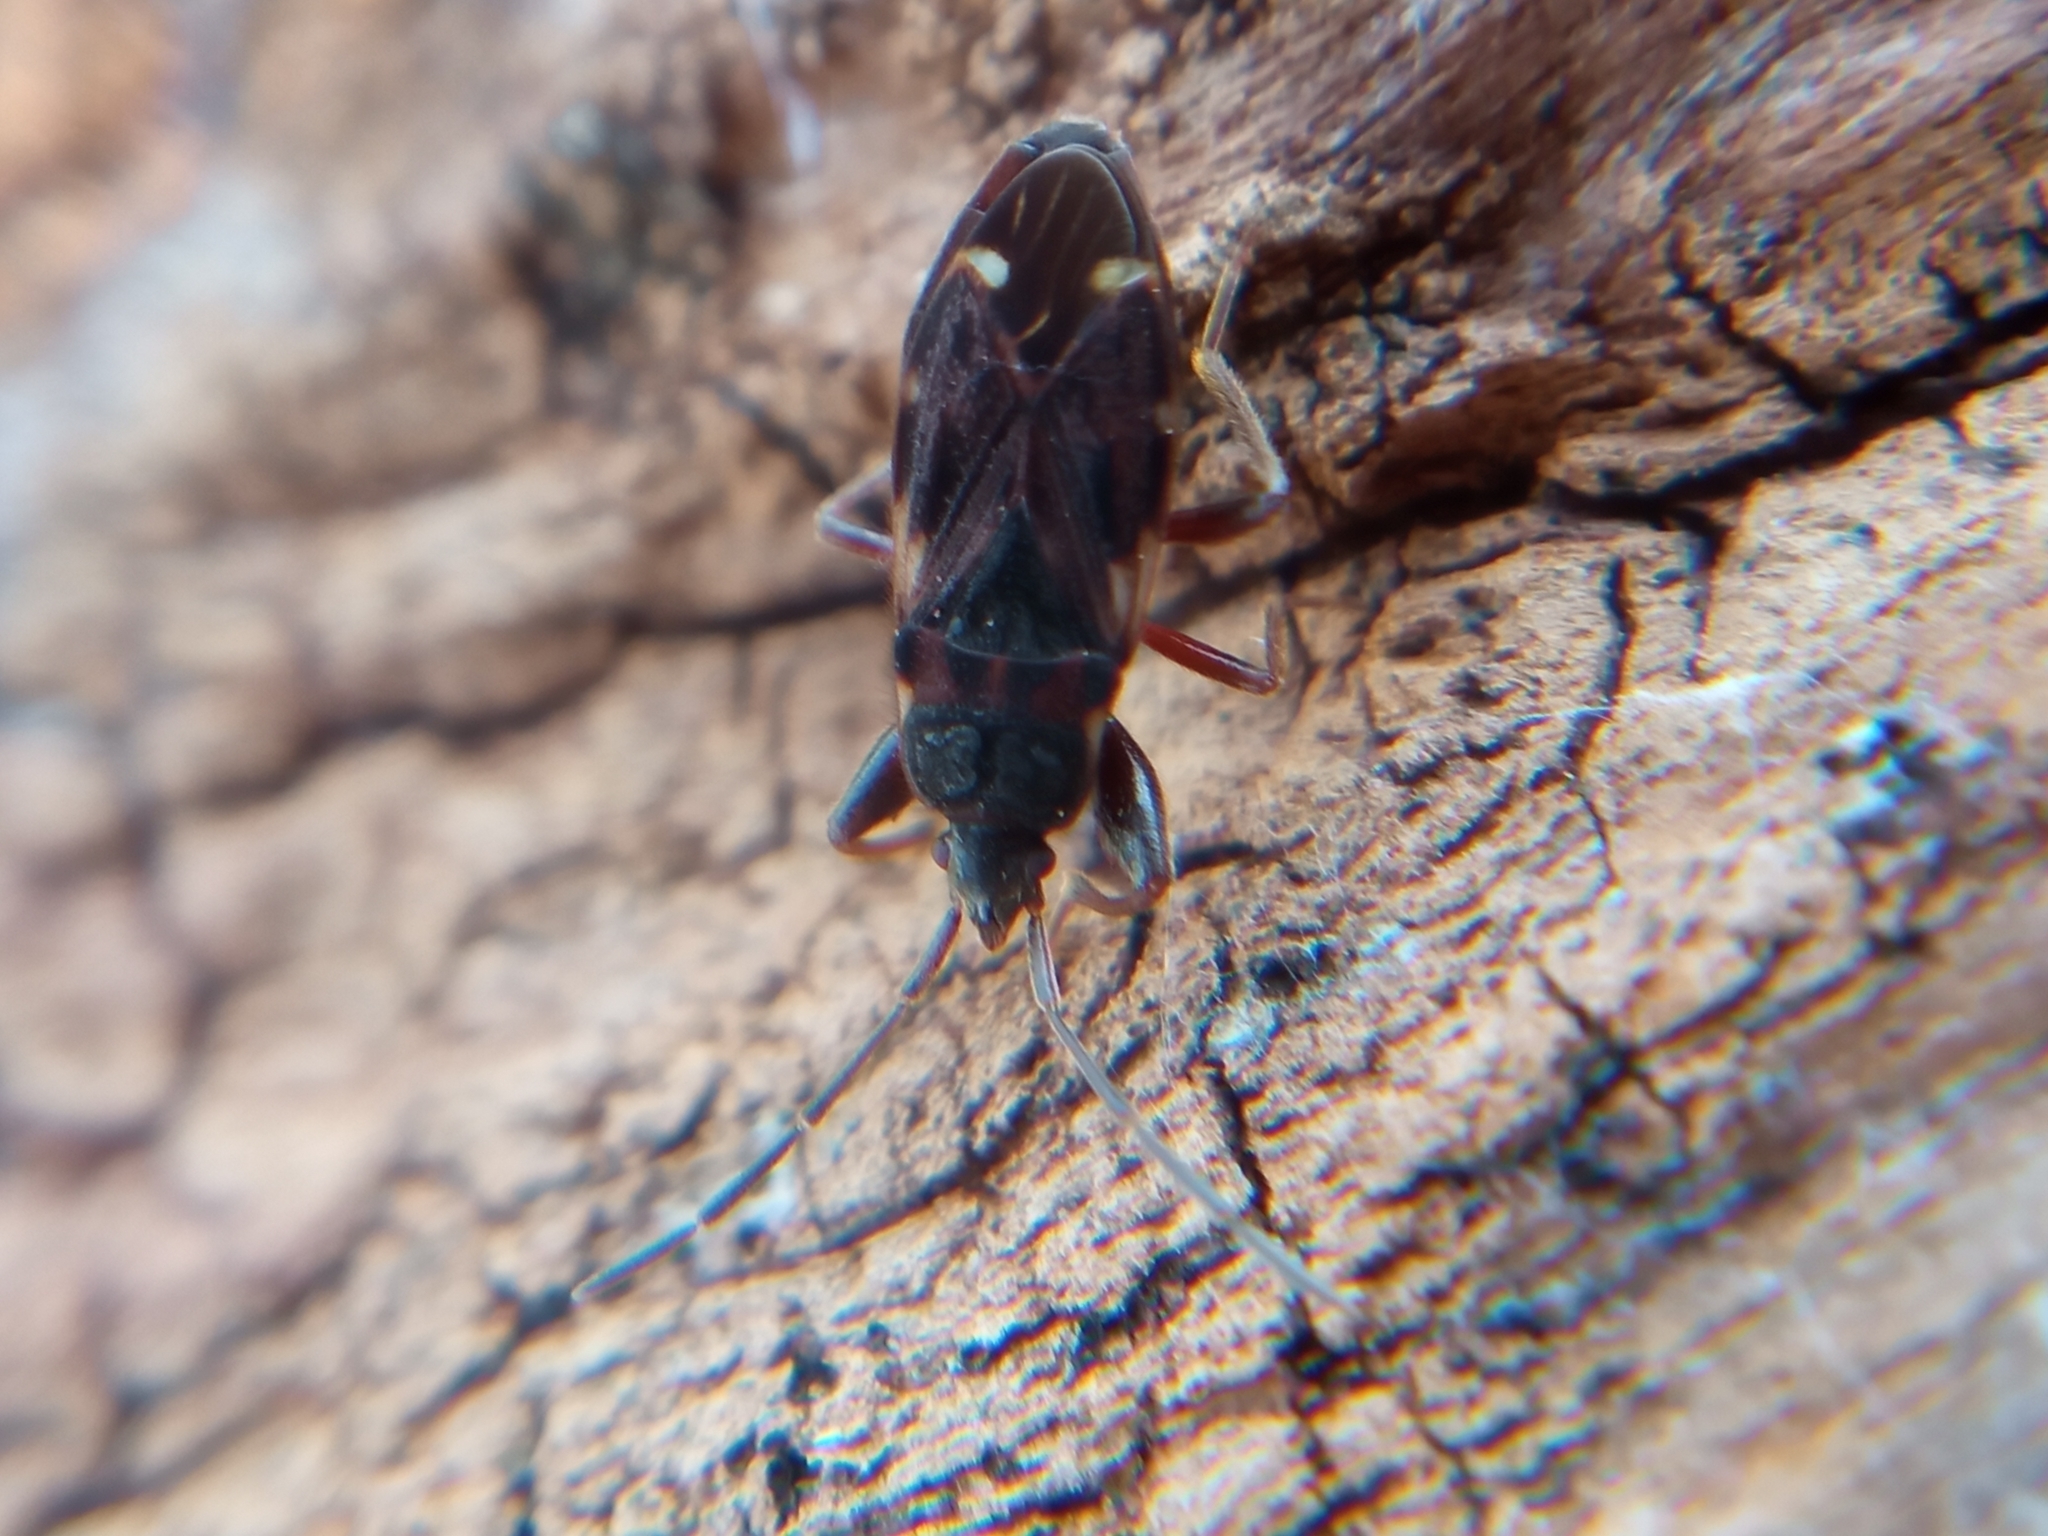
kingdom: Animalia
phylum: Arthropoda
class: Insecta
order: Hemiptera
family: Rhyparochromidae
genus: Eremocoris
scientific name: Eremocoris podagricus
